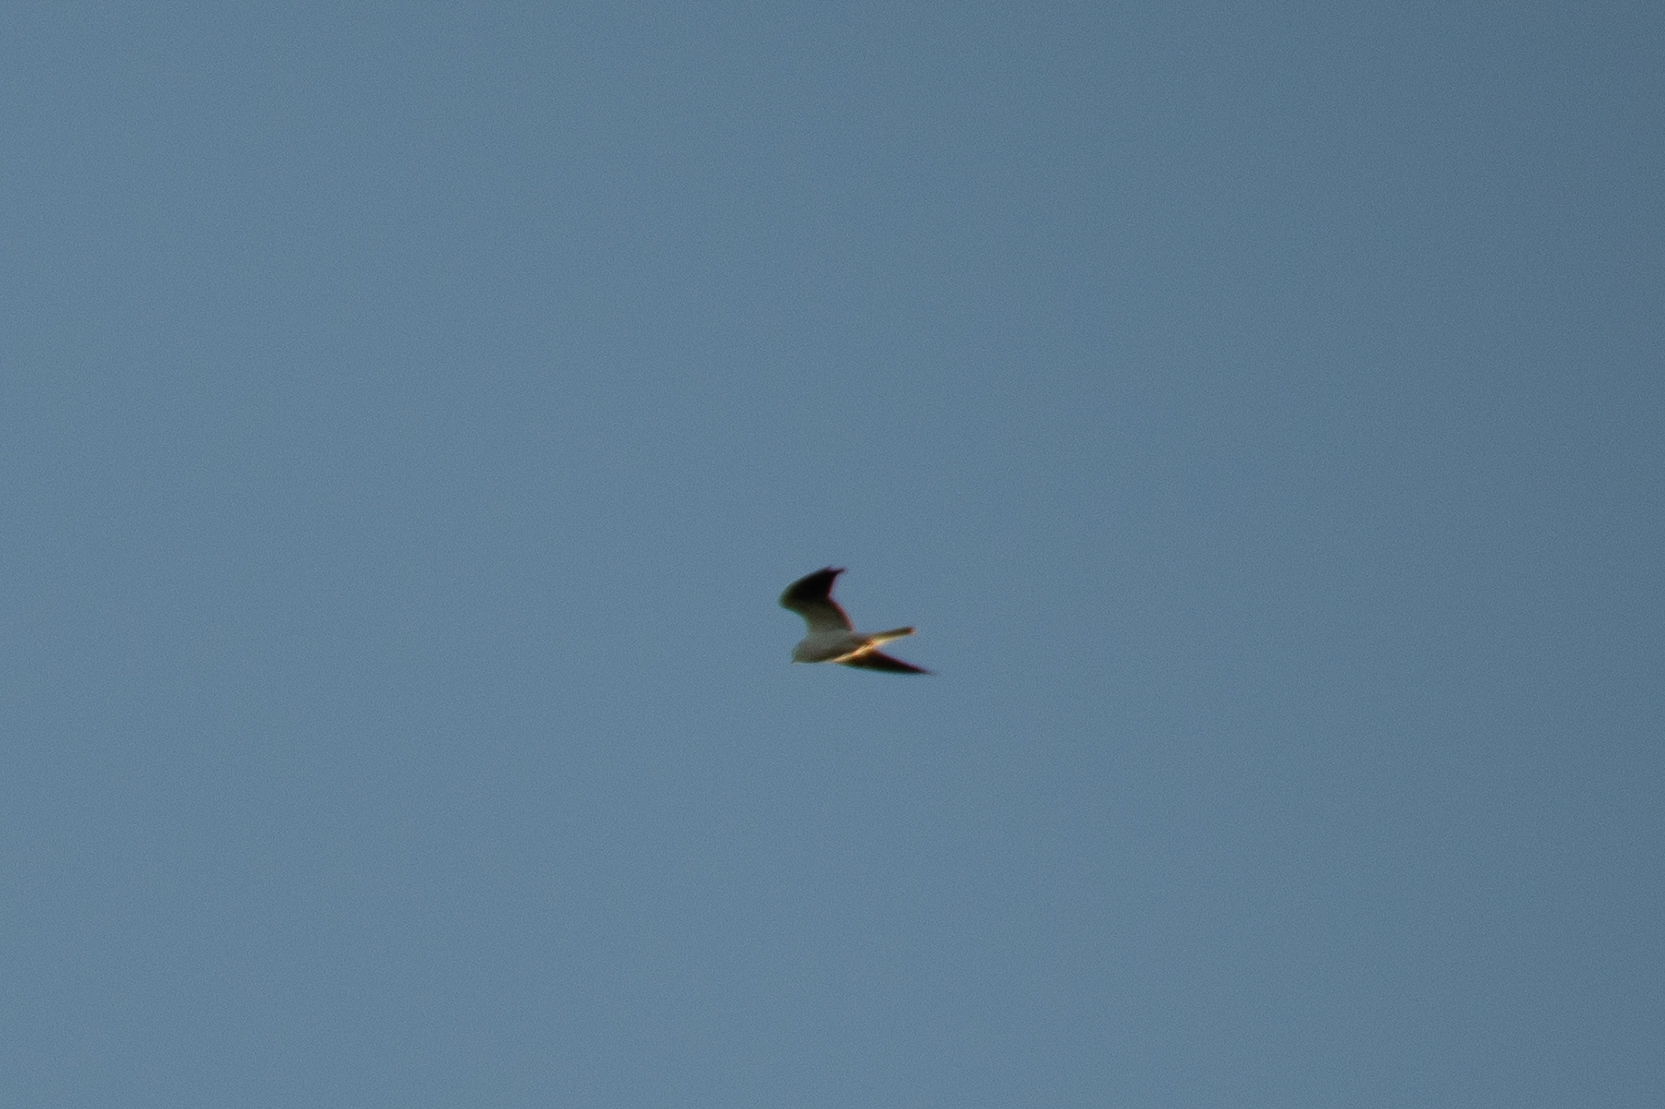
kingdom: Animalia
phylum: Chordata
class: Aves
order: Accipitriformes
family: Accipitridae
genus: Elanus
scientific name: Elanus leucurus
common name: White-tailed kite
